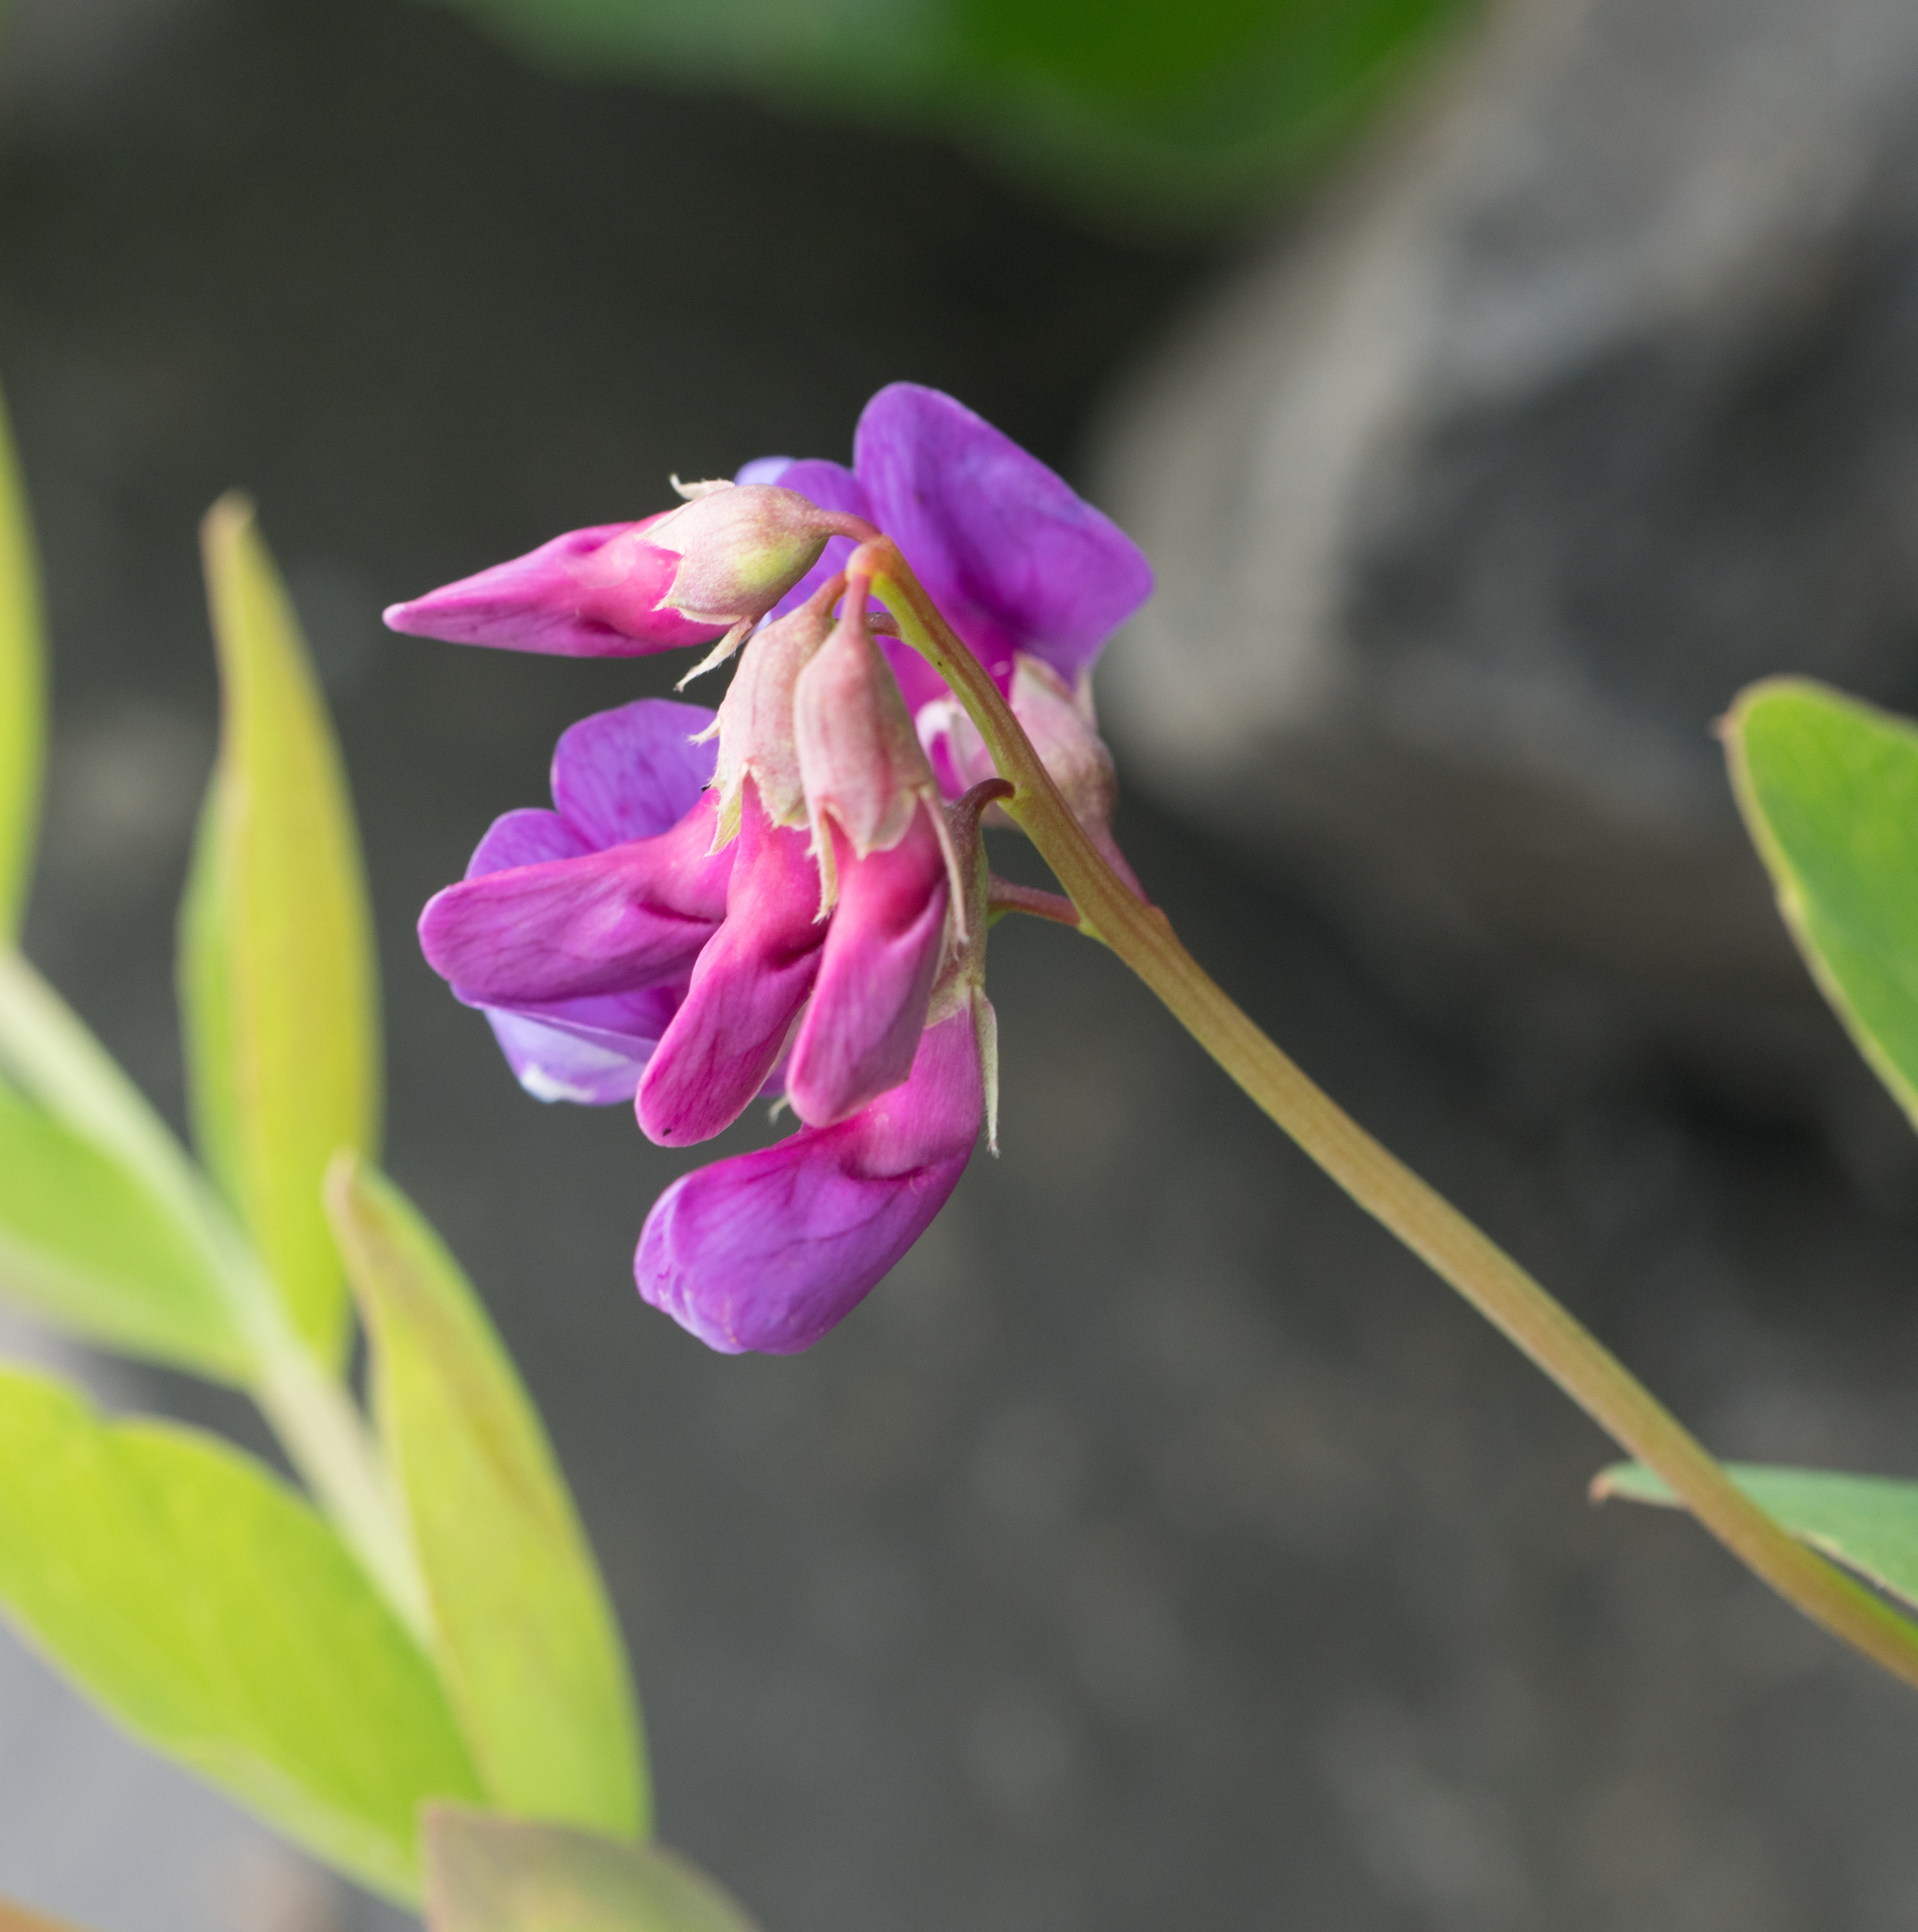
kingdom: Plantae
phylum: Tracheophyta
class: Magnoliopsida
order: Fabales
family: Fabaceae
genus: Lathyrus
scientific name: Lathyrus japonicus
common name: Sea pea
